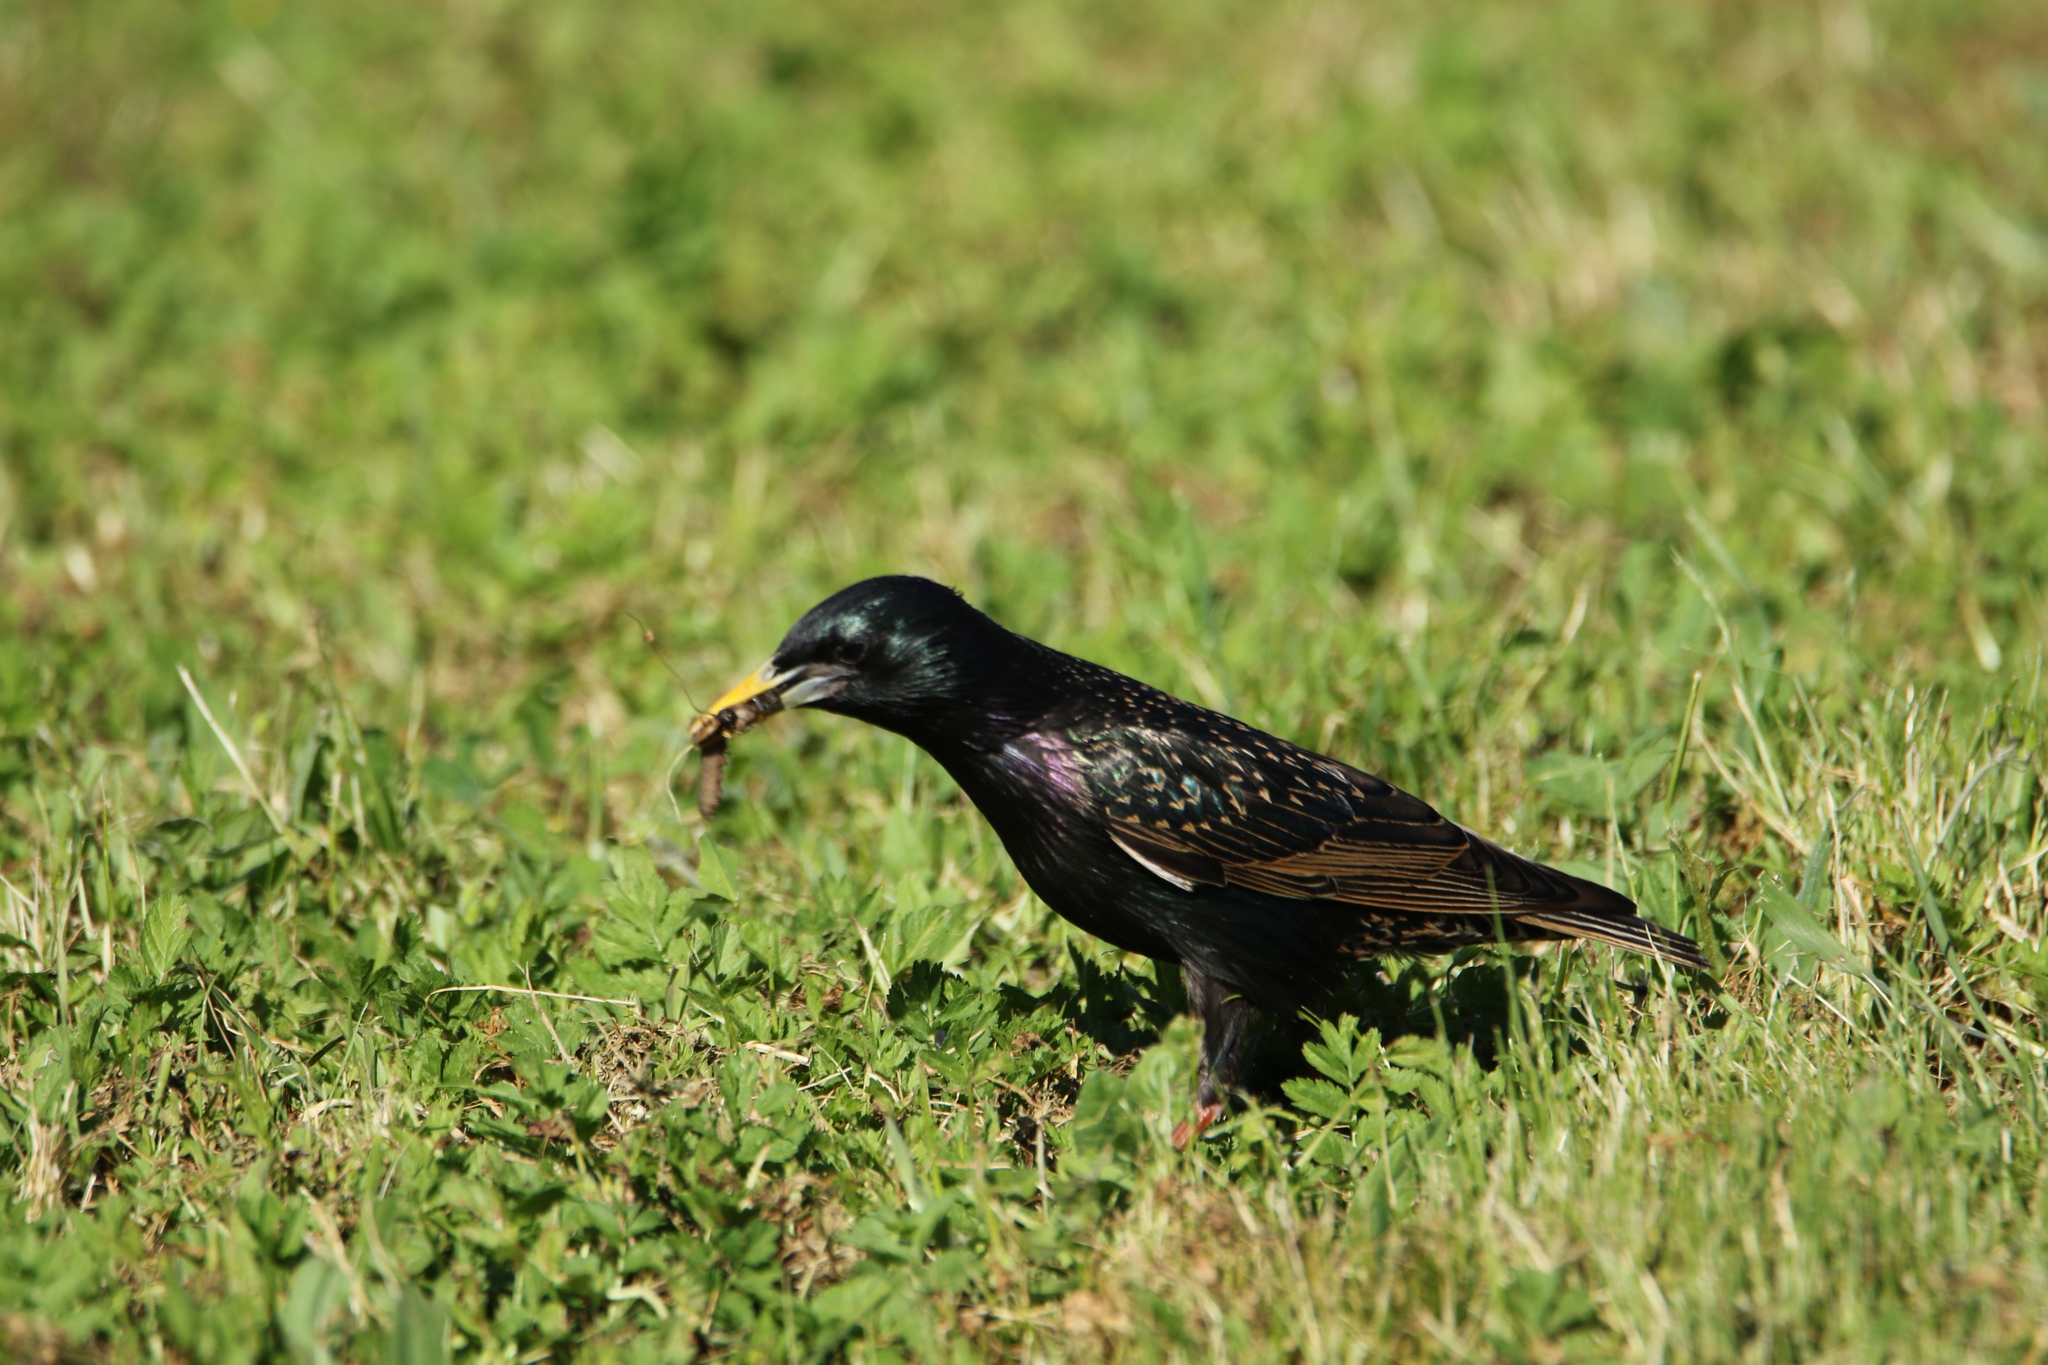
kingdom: Animalia
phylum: Chordata
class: Aves
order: Passeriformes
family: Sturnidae
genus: Sturnus
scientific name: Sturnus vulgaris
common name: Common starling
